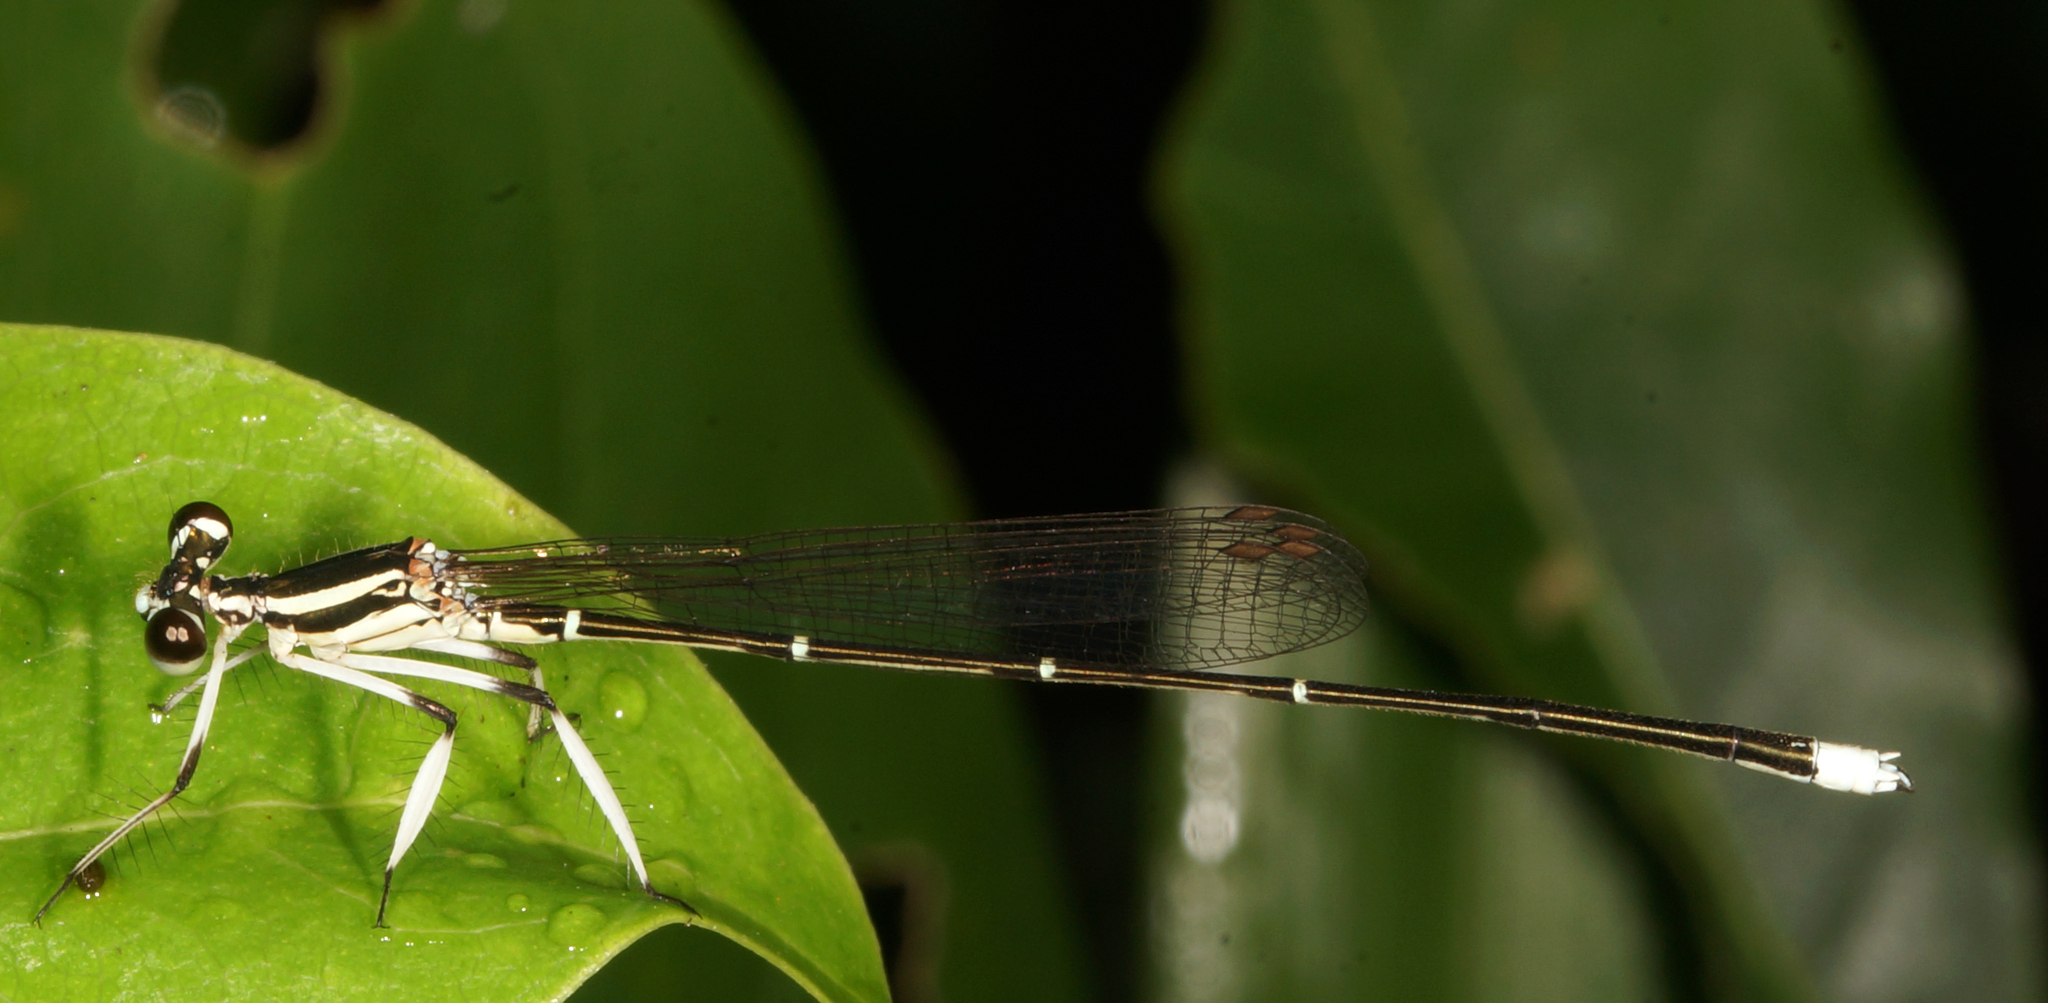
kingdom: Animalia
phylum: Arthropoda
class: Insecta
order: Odonata
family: Platycnemididae
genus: Pseudocopera
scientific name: Pseudocopera ciliata
